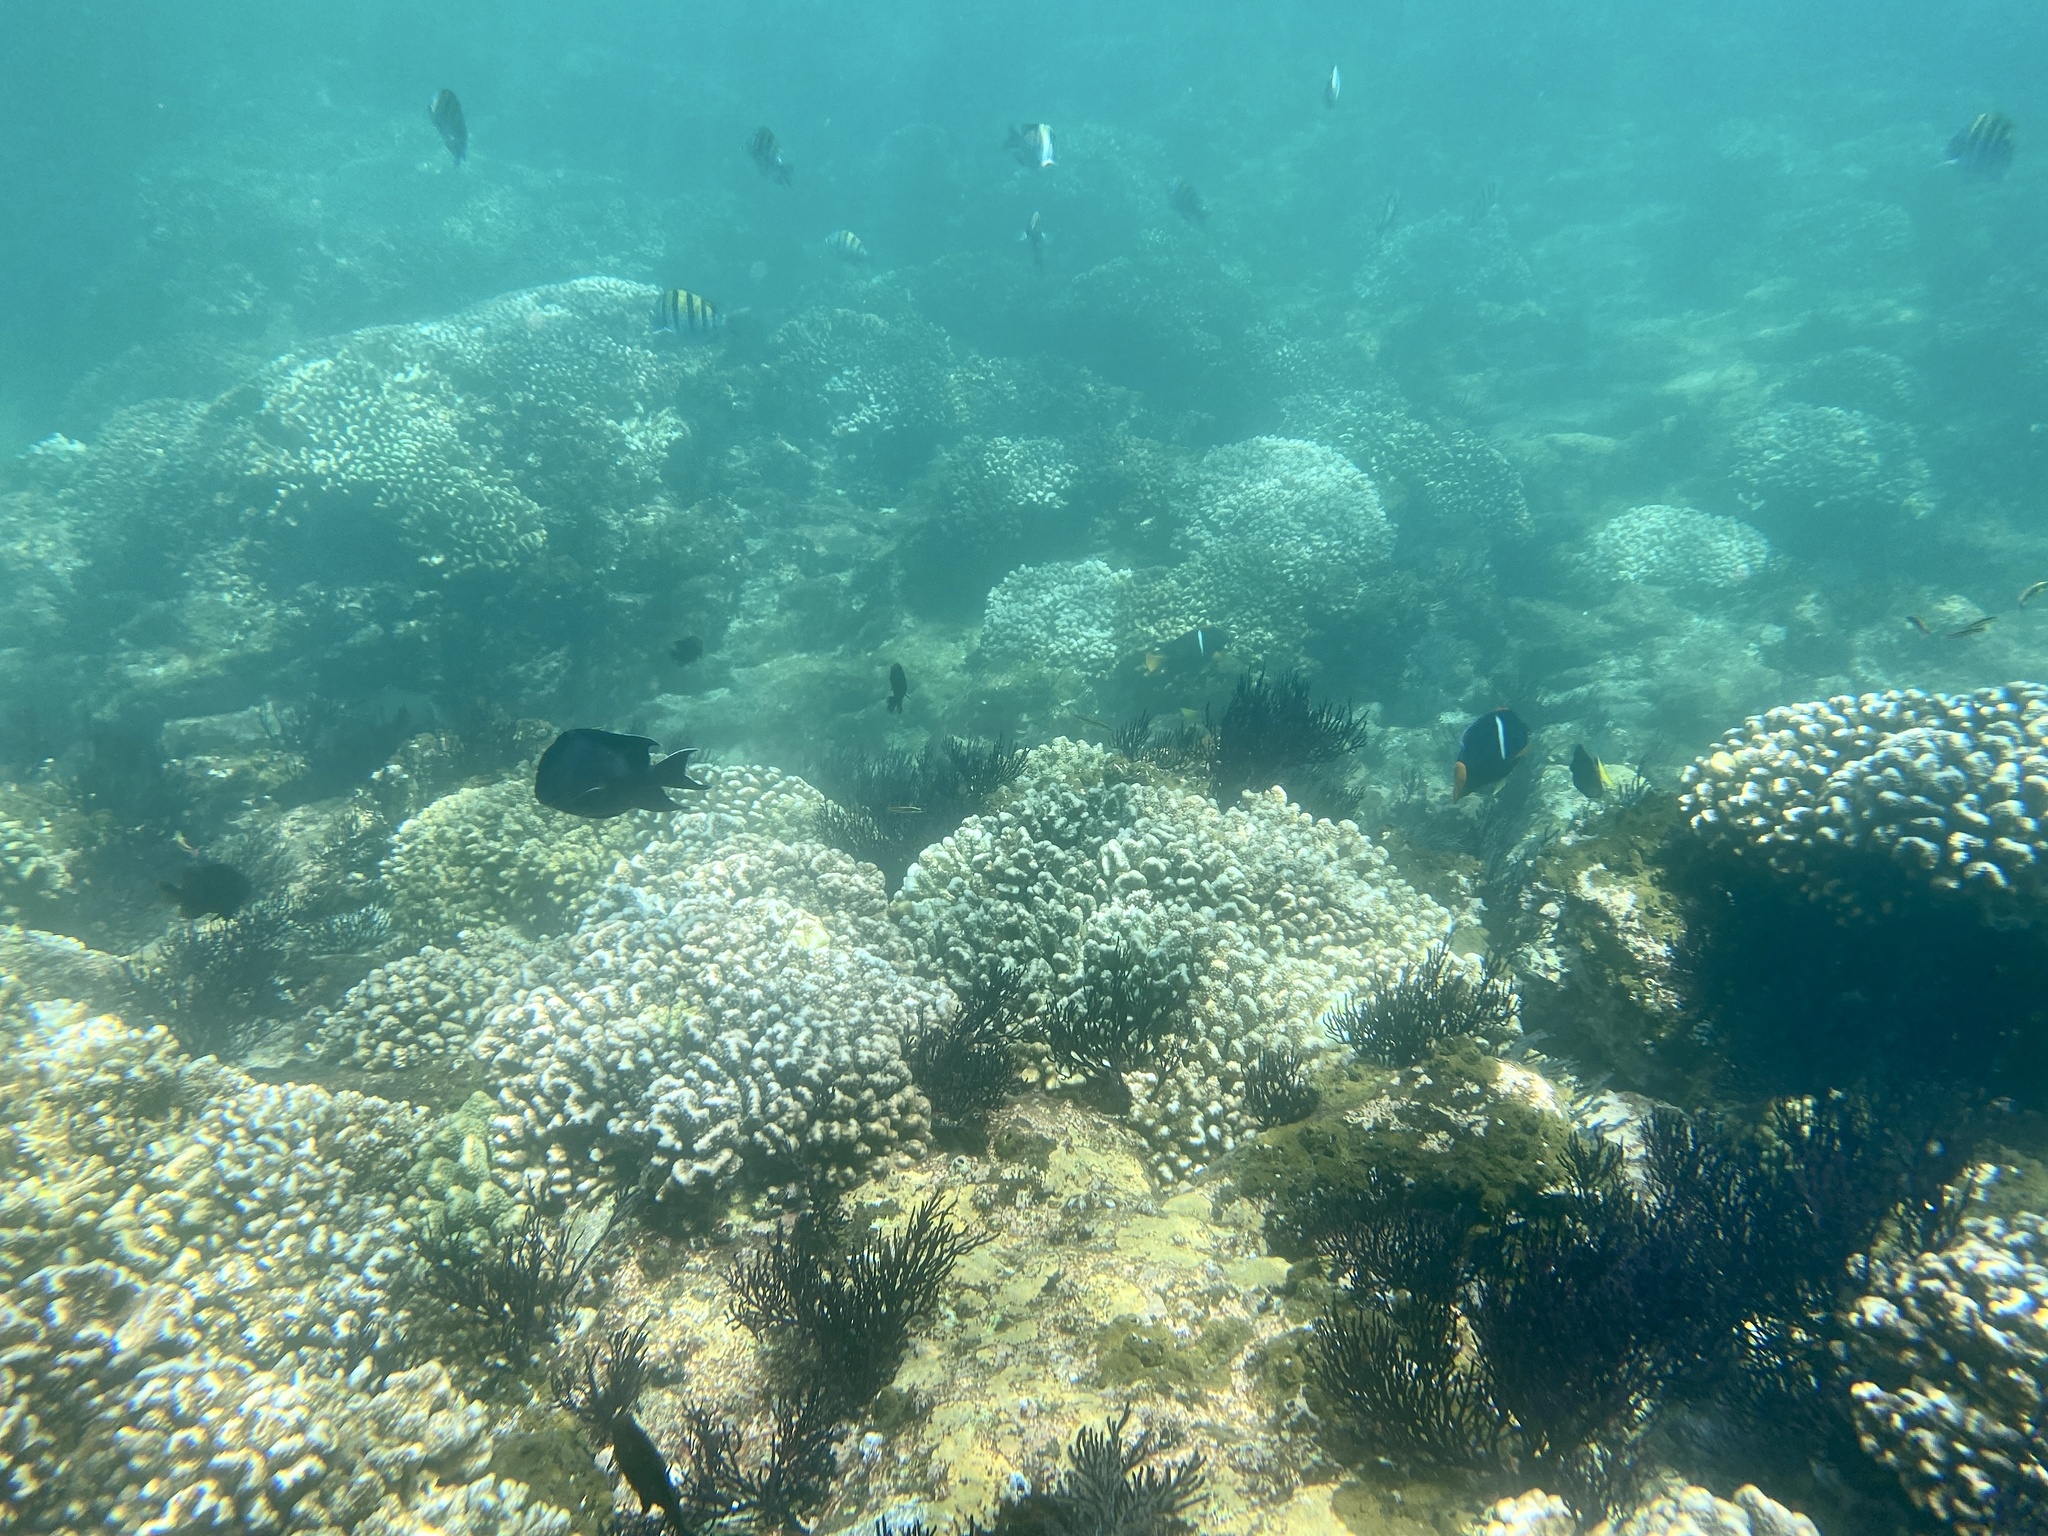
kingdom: Animalia
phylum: Chordata
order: Perciformes
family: Pomacanthidae
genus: Holacanthus
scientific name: Holacanthus passer
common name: King angelfish
